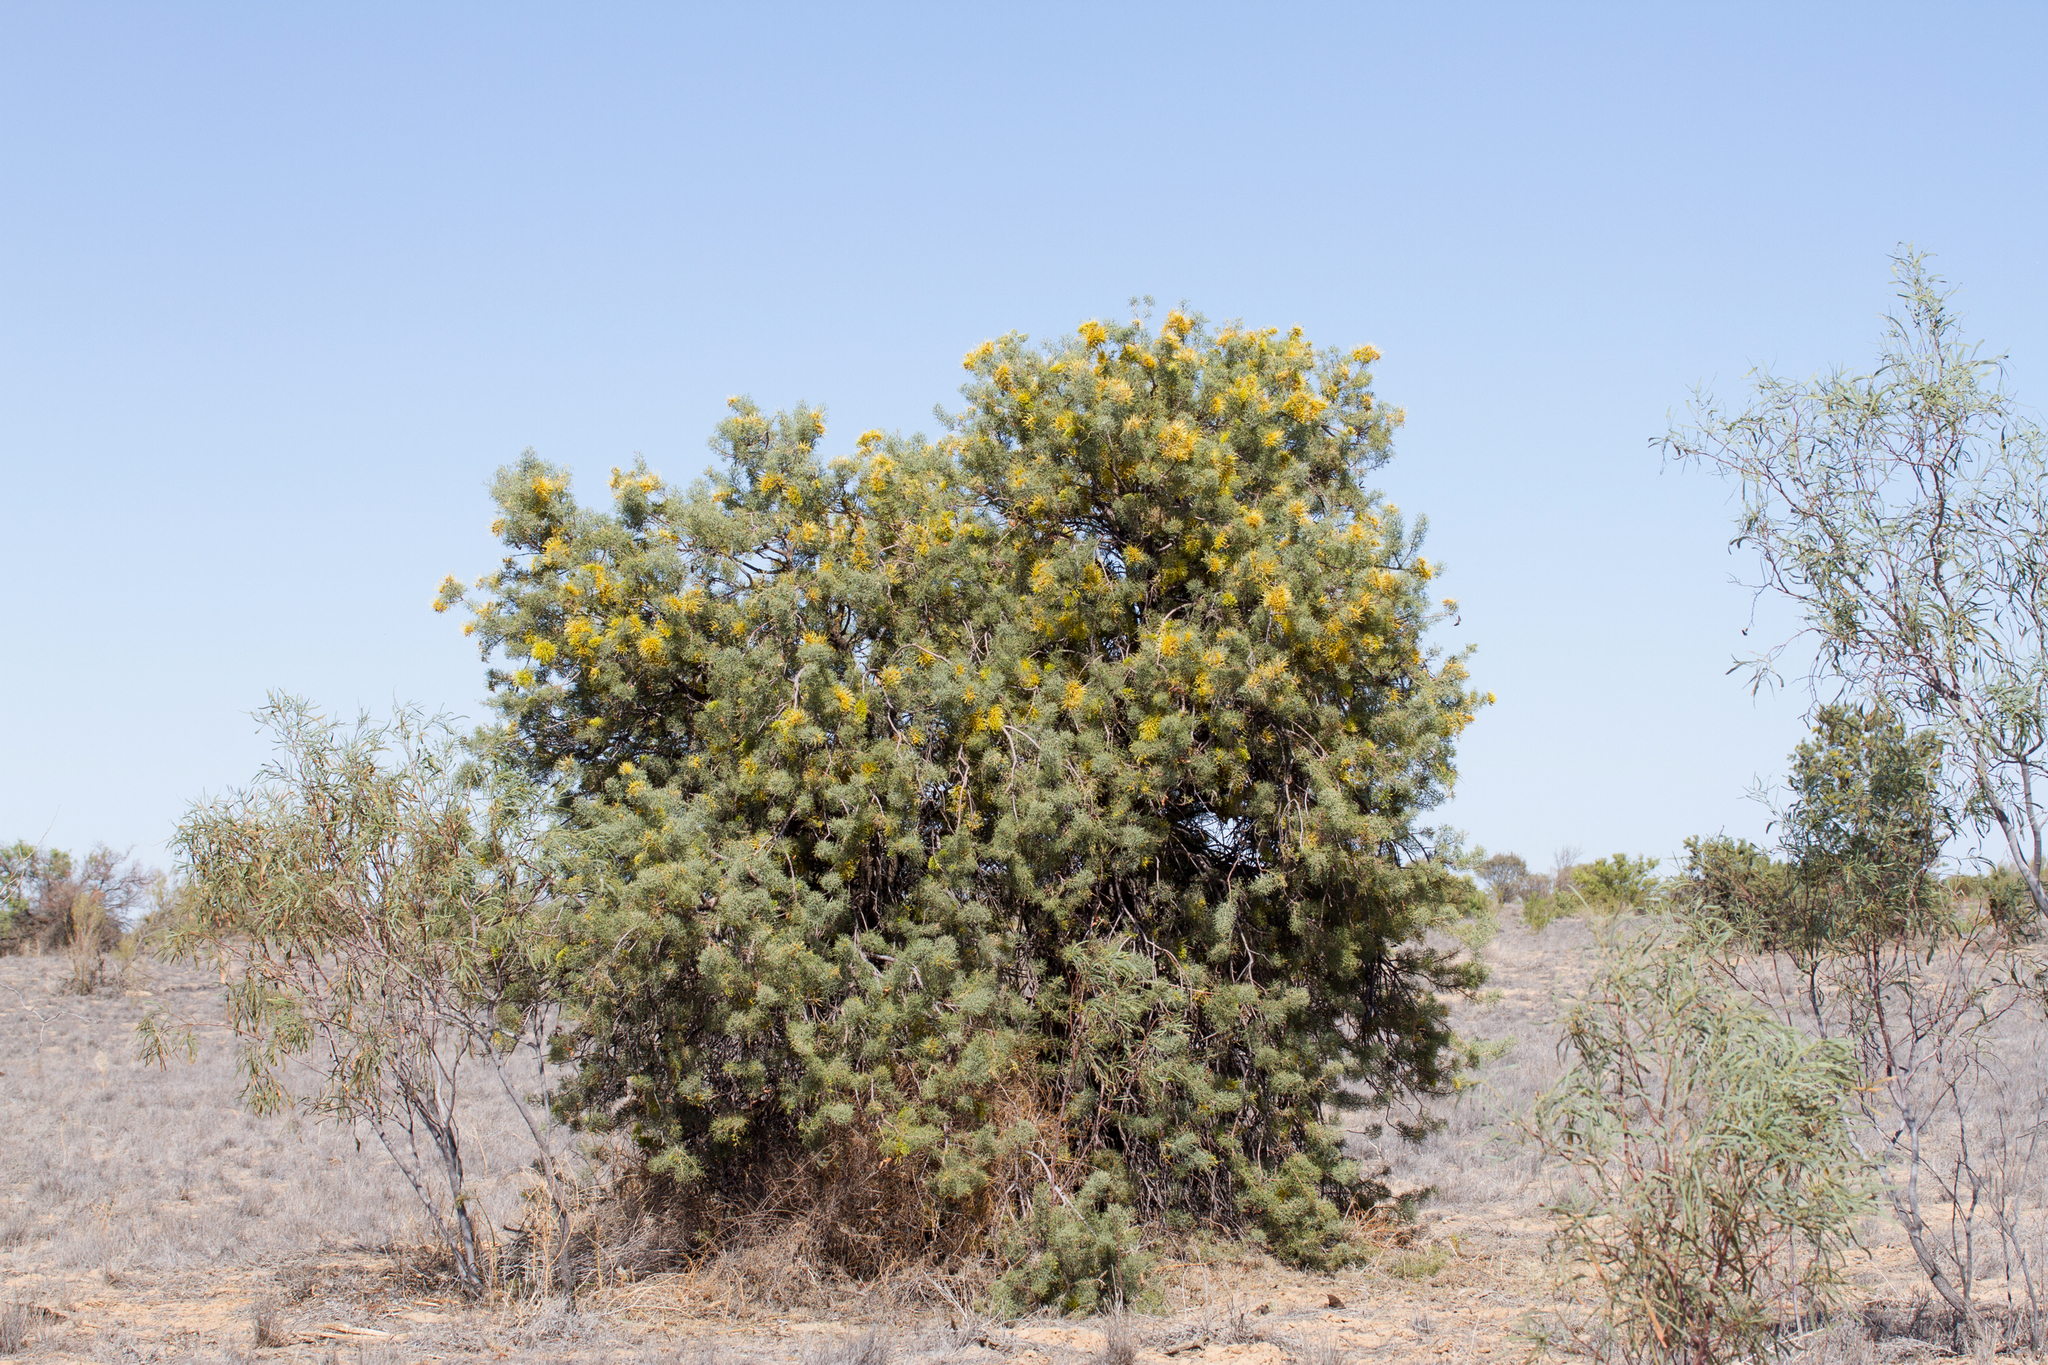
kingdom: Plantae
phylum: Tracheophyta
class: Magnoliopsida
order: Proteales
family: Proteaceae
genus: Hakea
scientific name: Hakea eyreana
